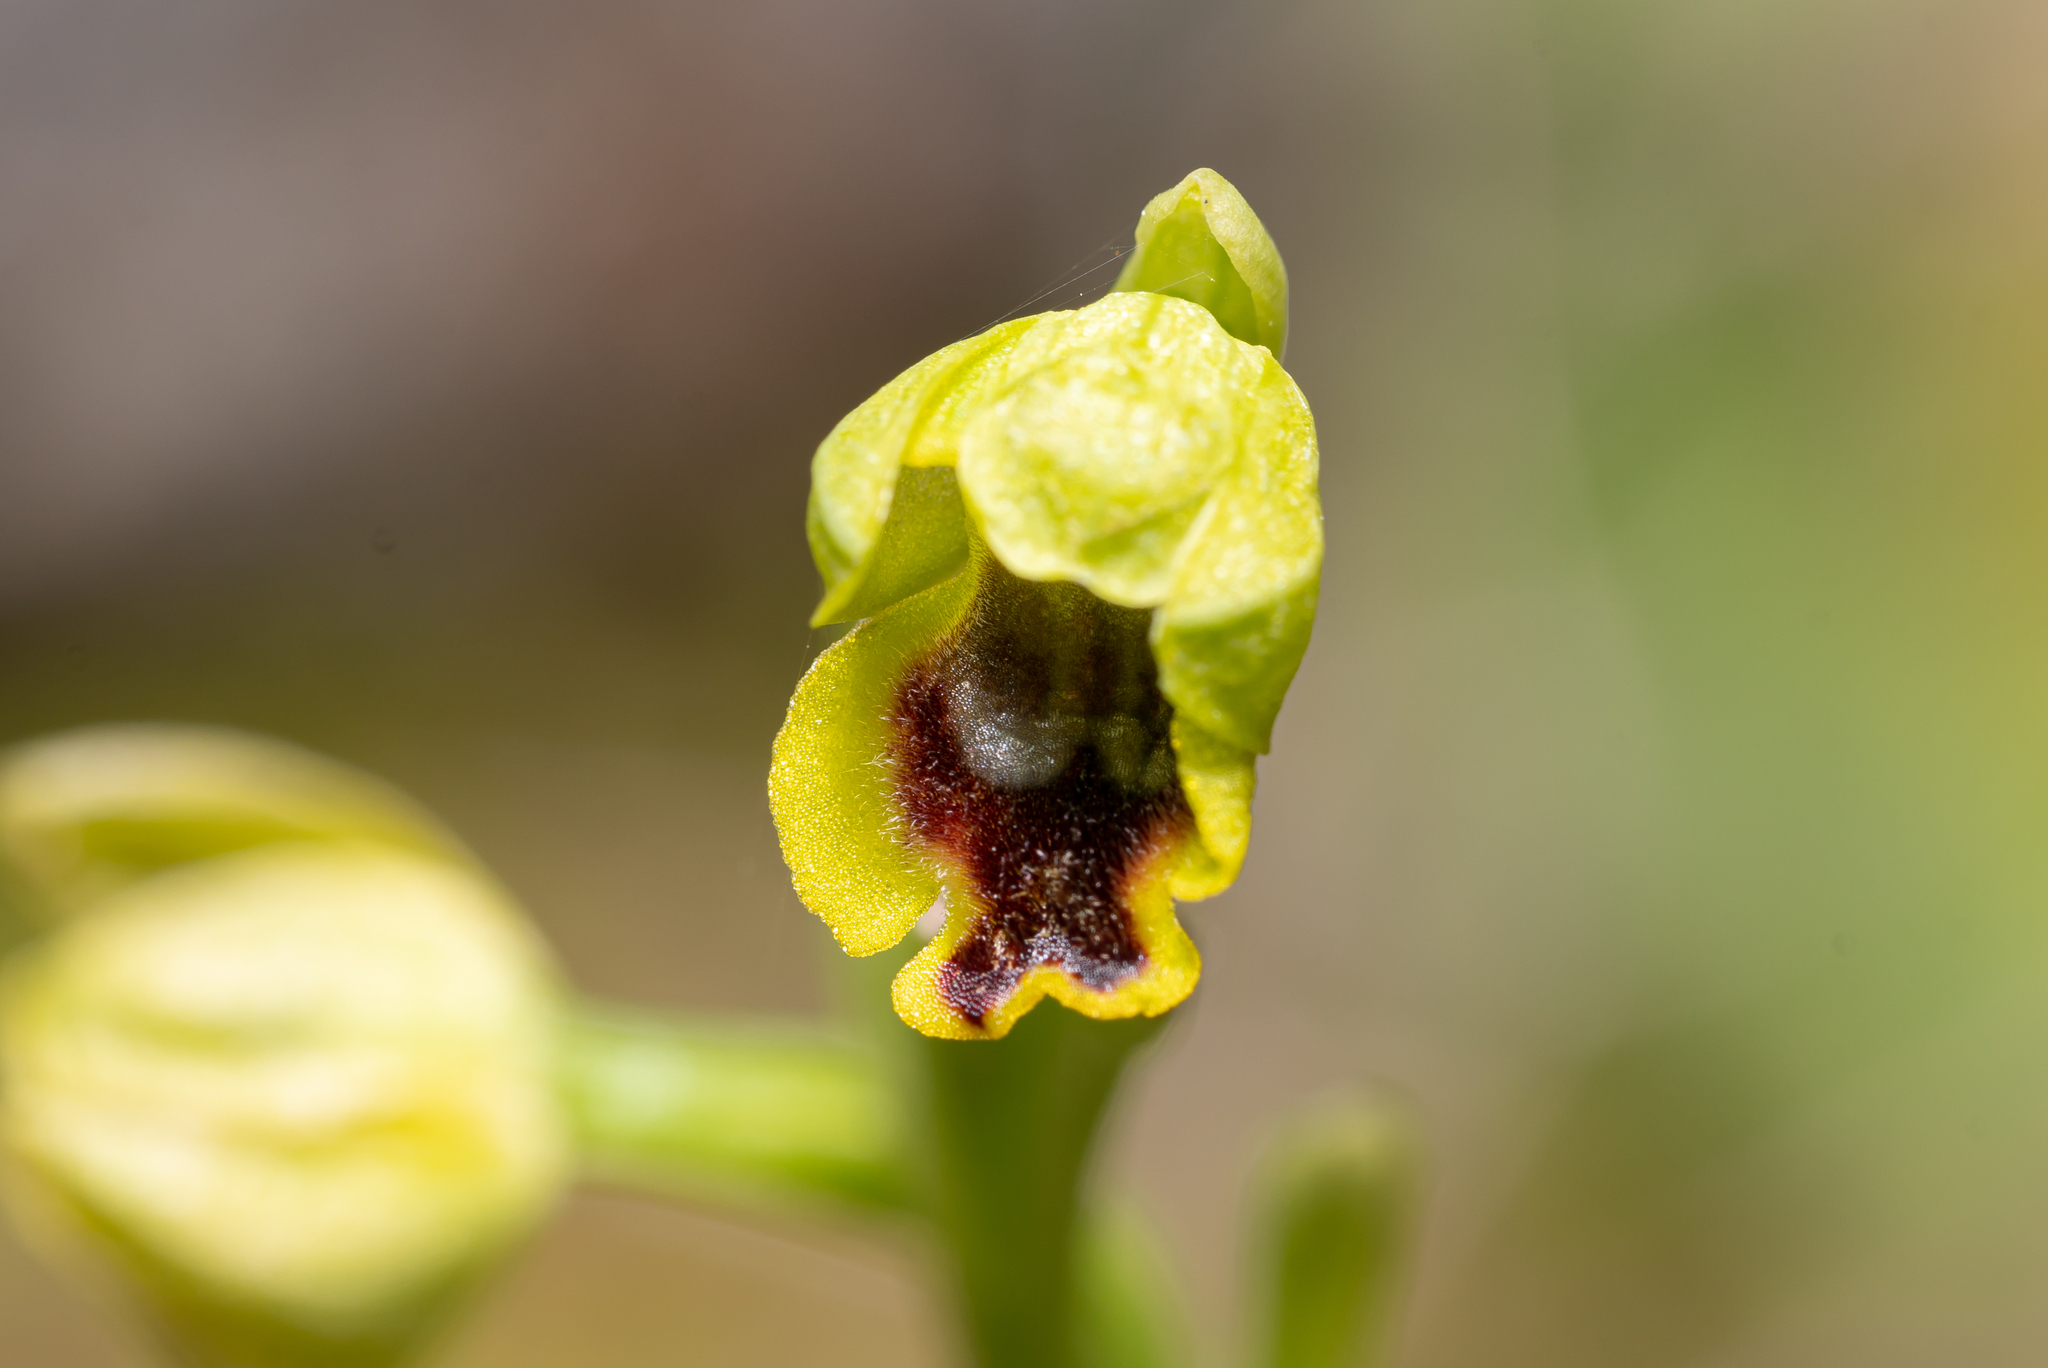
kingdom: Plantae
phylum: Tracheophyta
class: Liliopsida
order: Asparagales
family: Orchidaceae
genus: Ophrys
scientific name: Ophrys lutea
